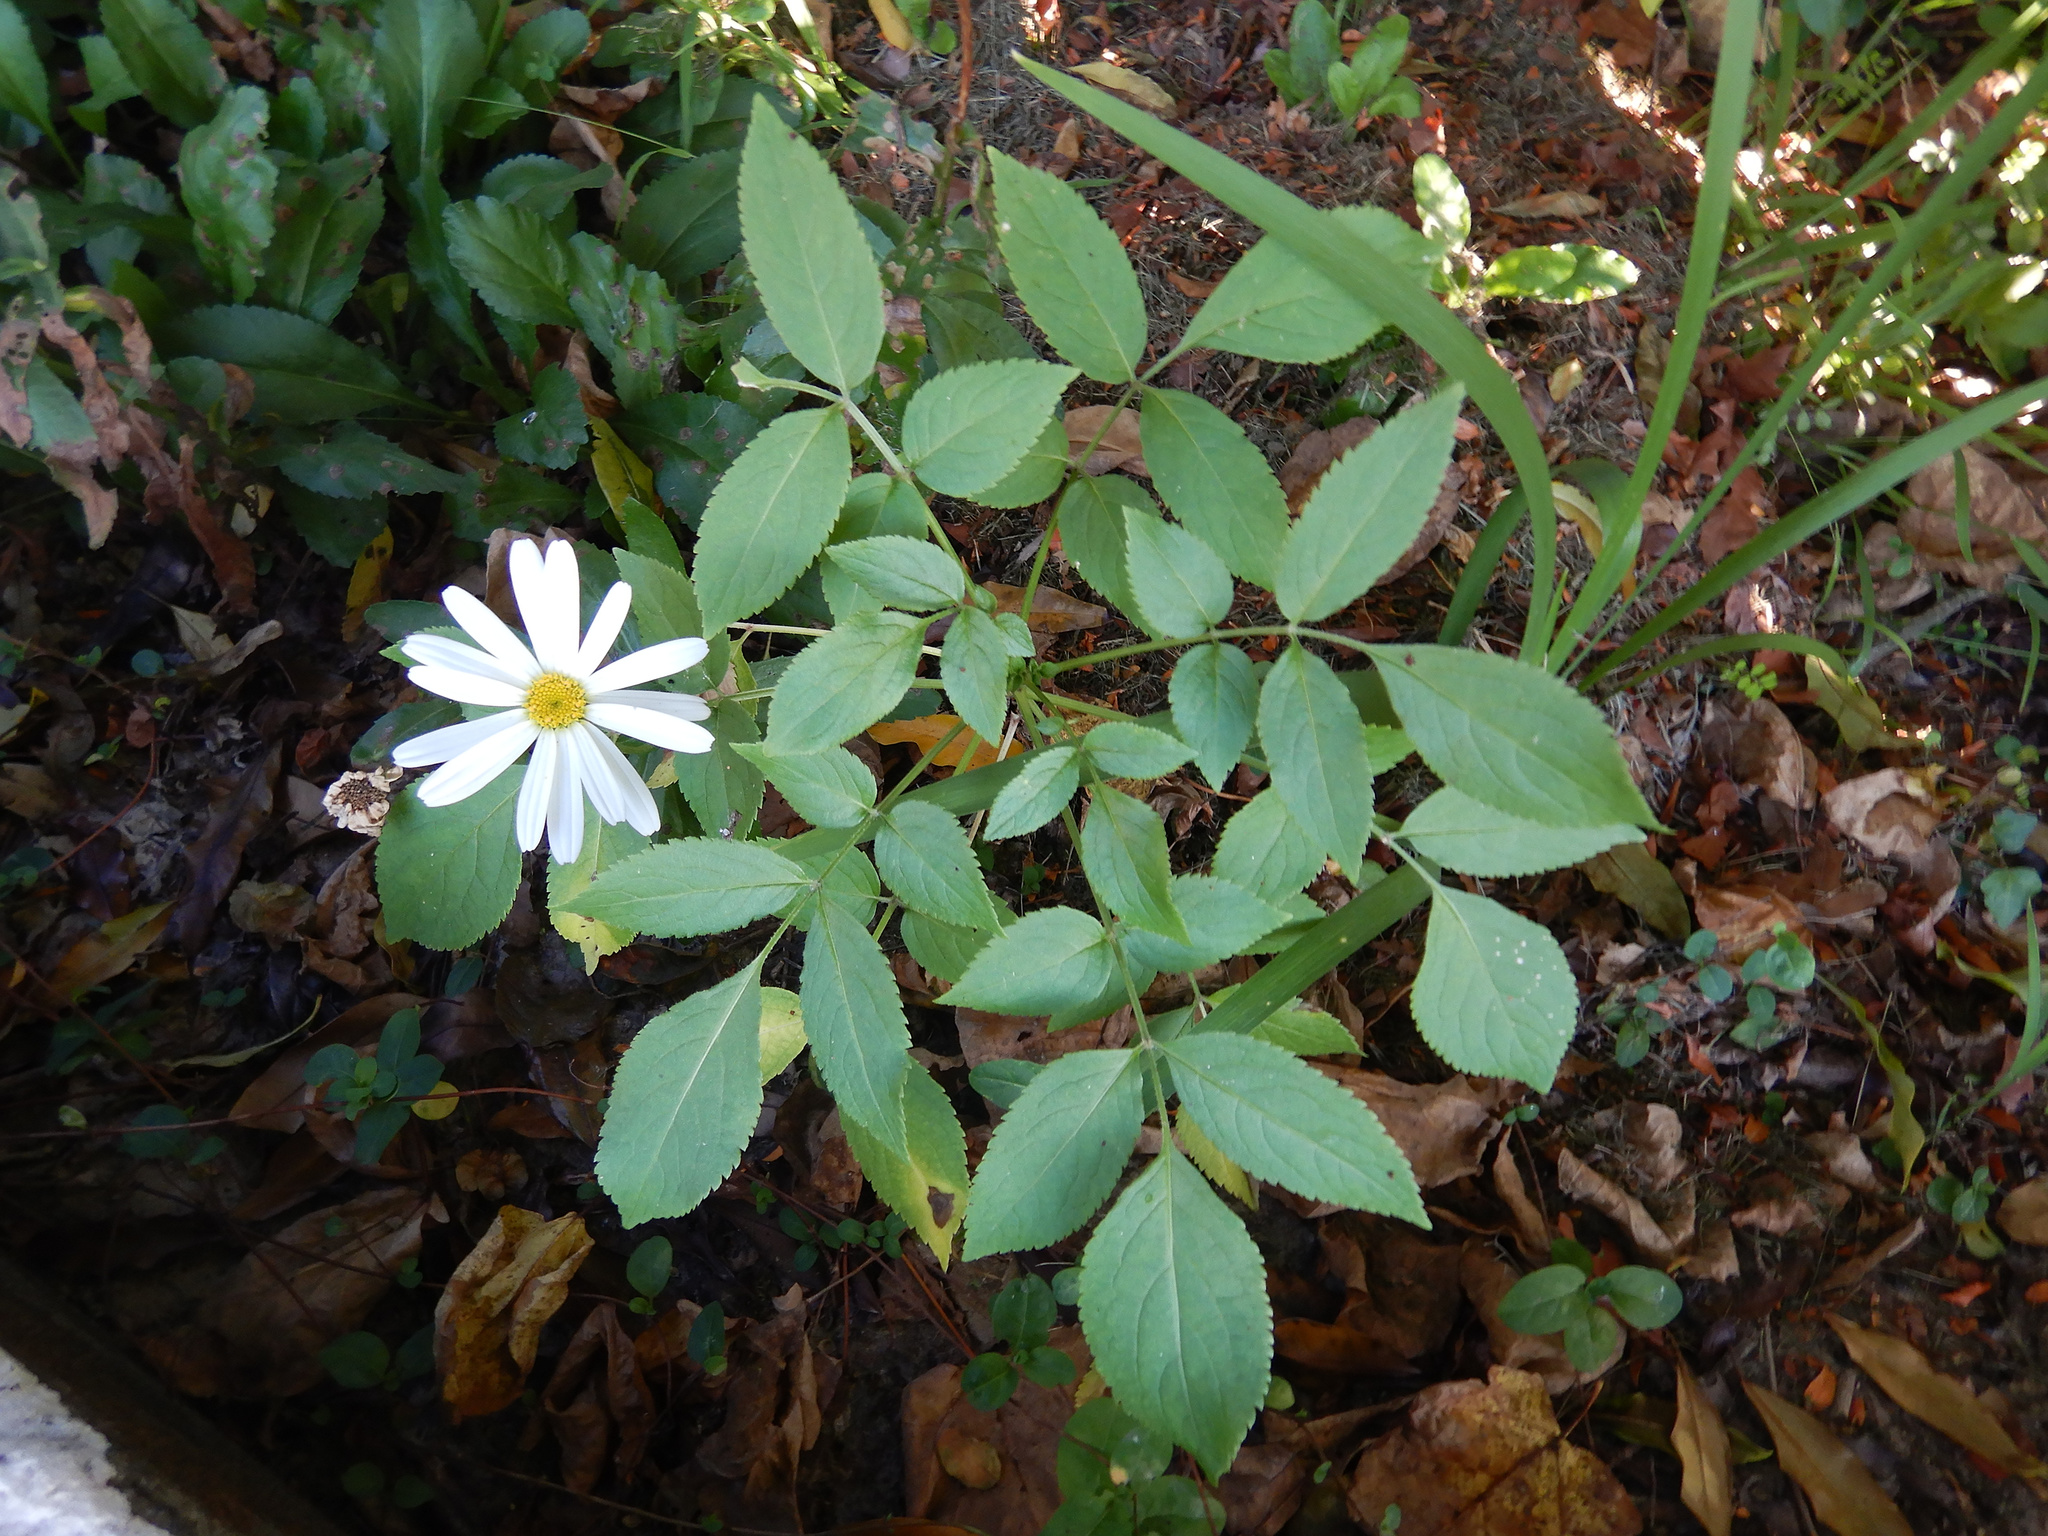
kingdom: Plantae
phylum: Tracheophyta
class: Magnoliopsida
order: Dipsacales
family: Viburnaceae
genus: Sambucus
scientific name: Sambucus nigra
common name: Elder
